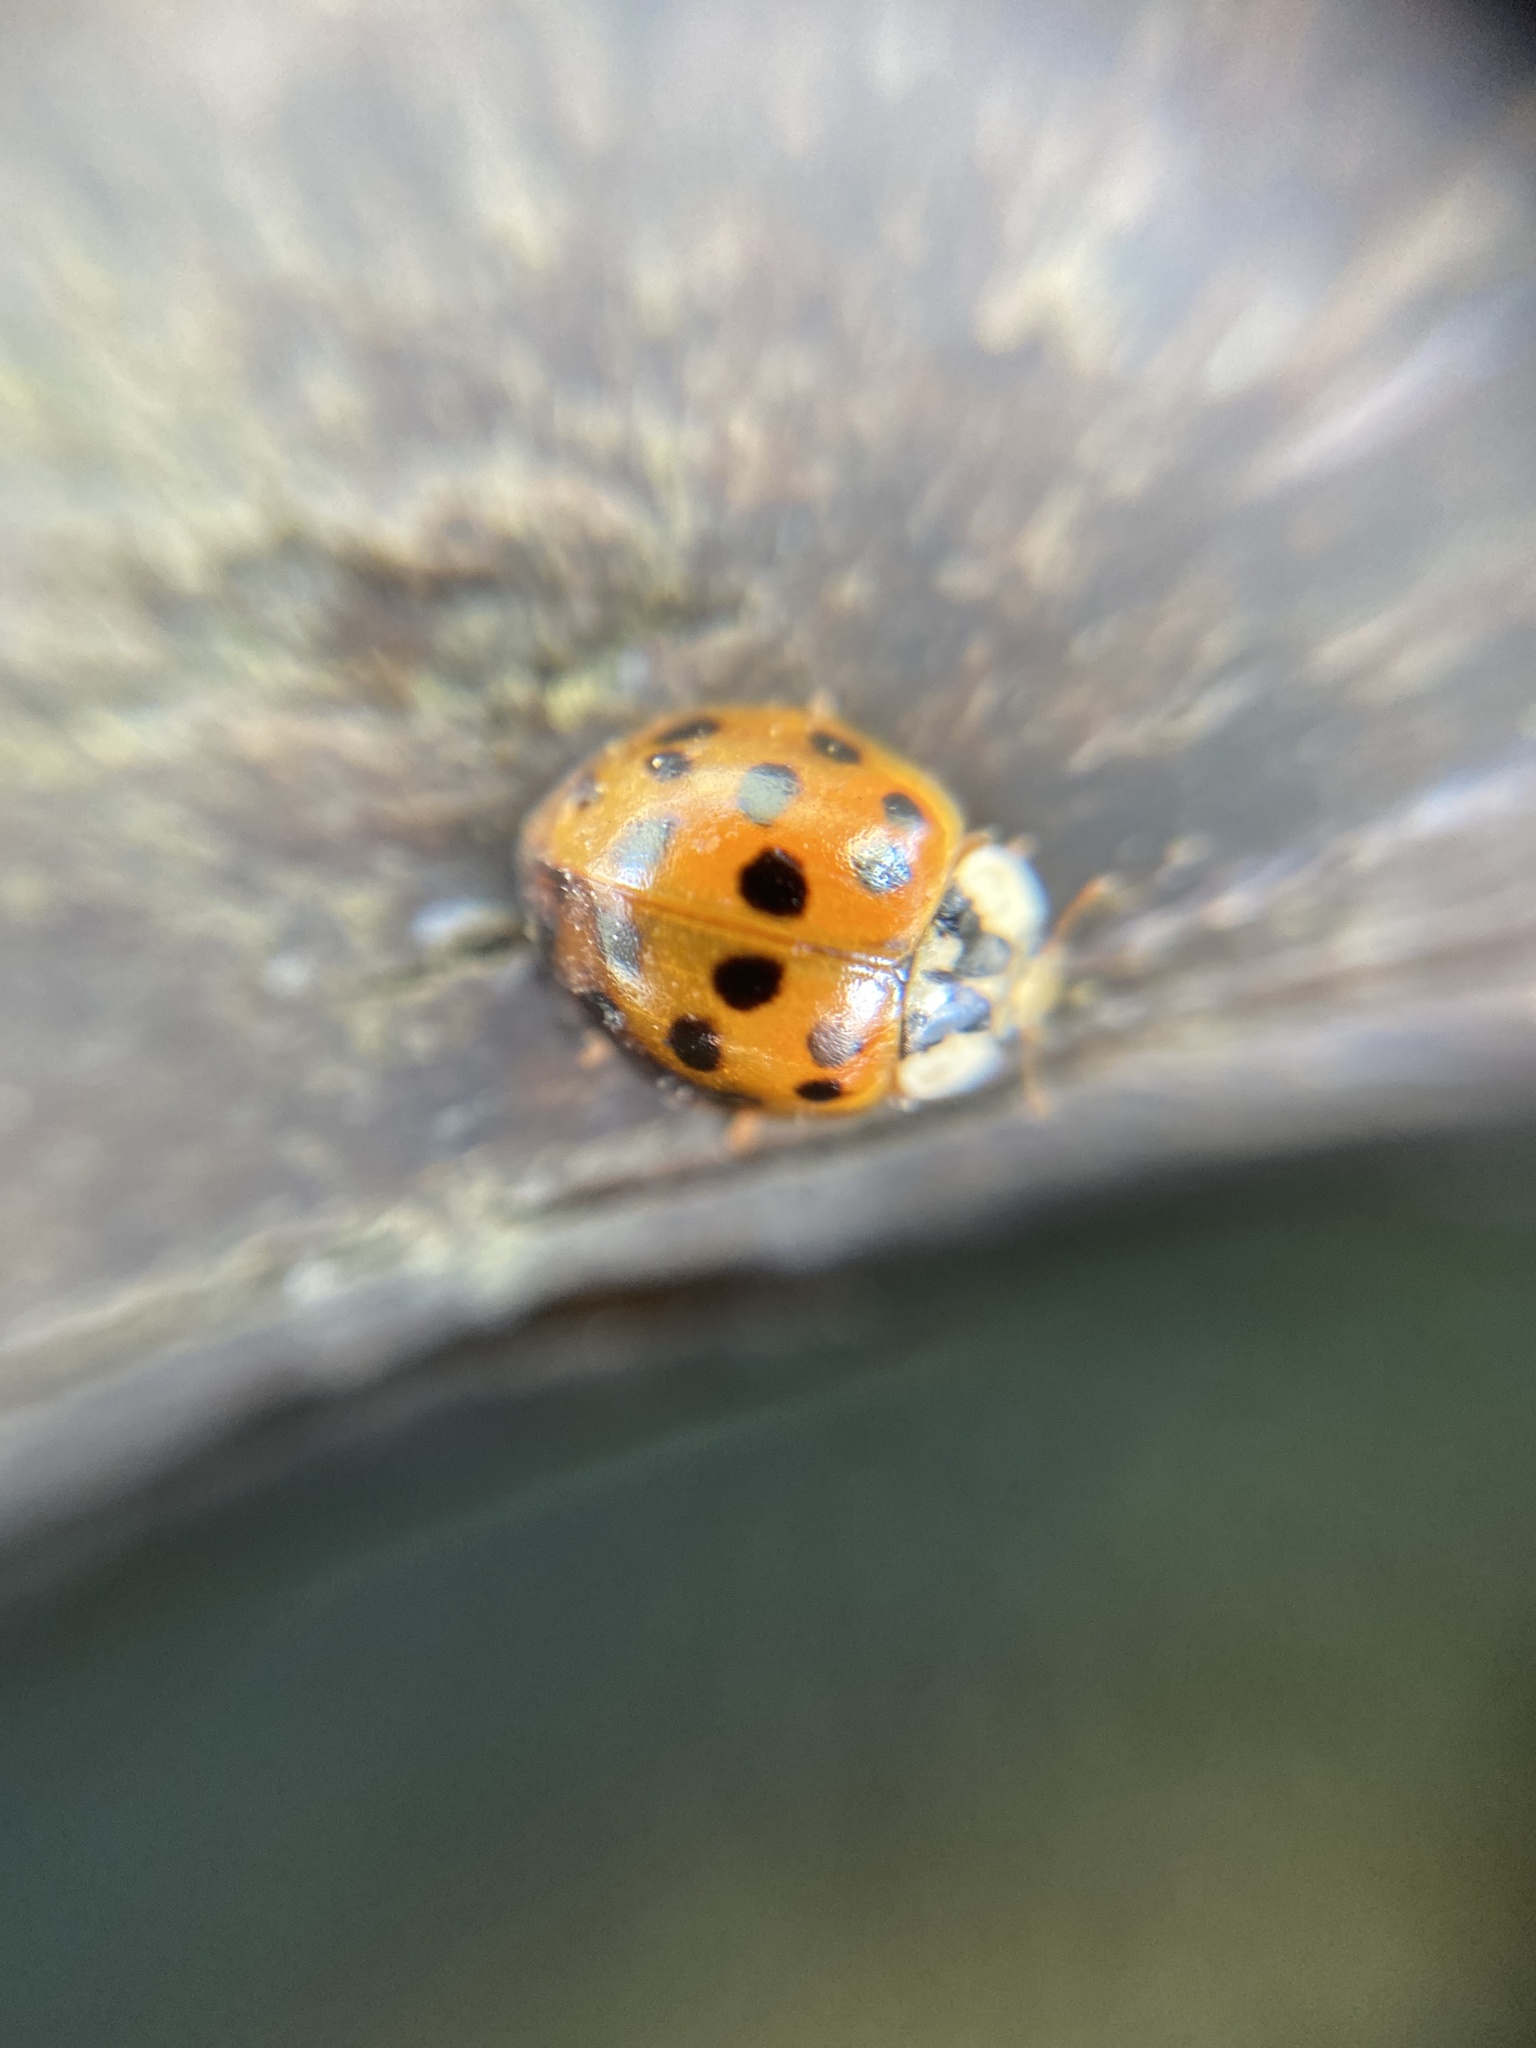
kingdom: Animalia
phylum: Arthropoda
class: Insecta
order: Coleoptera
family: Coccinellidae
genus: Harmonia
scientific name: Harmonia axyridis
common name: Harlequin ladybird
